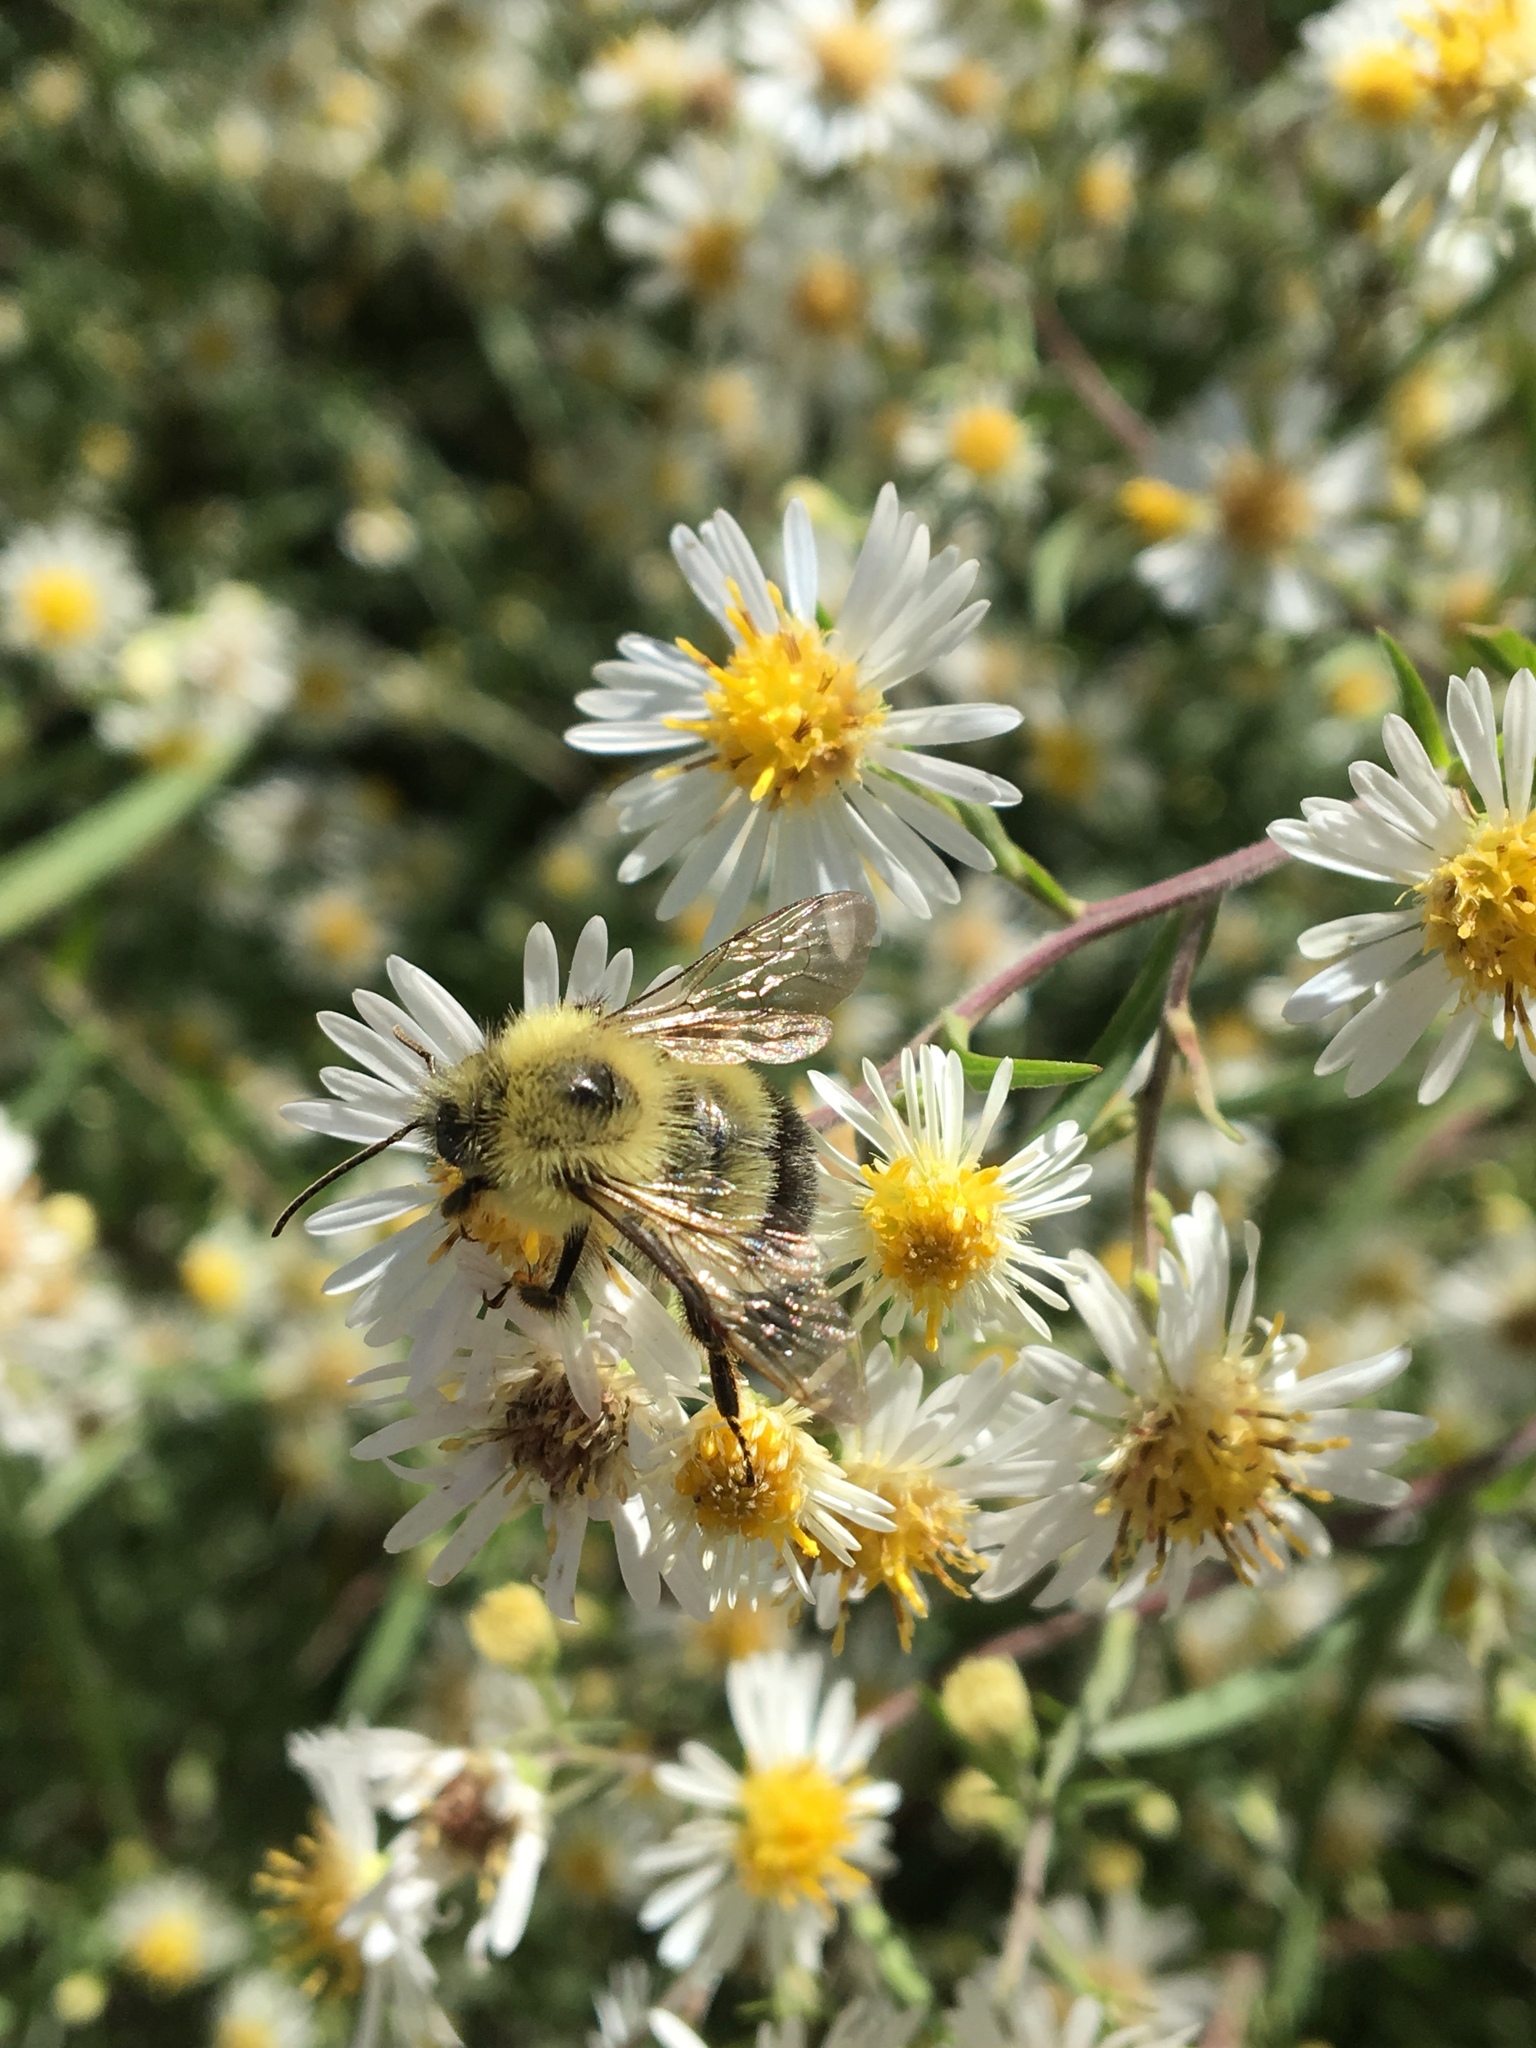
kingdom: Animalia
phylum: Arthropoda
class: Insecta
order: Hymenoptera
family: Apidae
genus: Pyrobombus
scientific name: Pyrobombus
